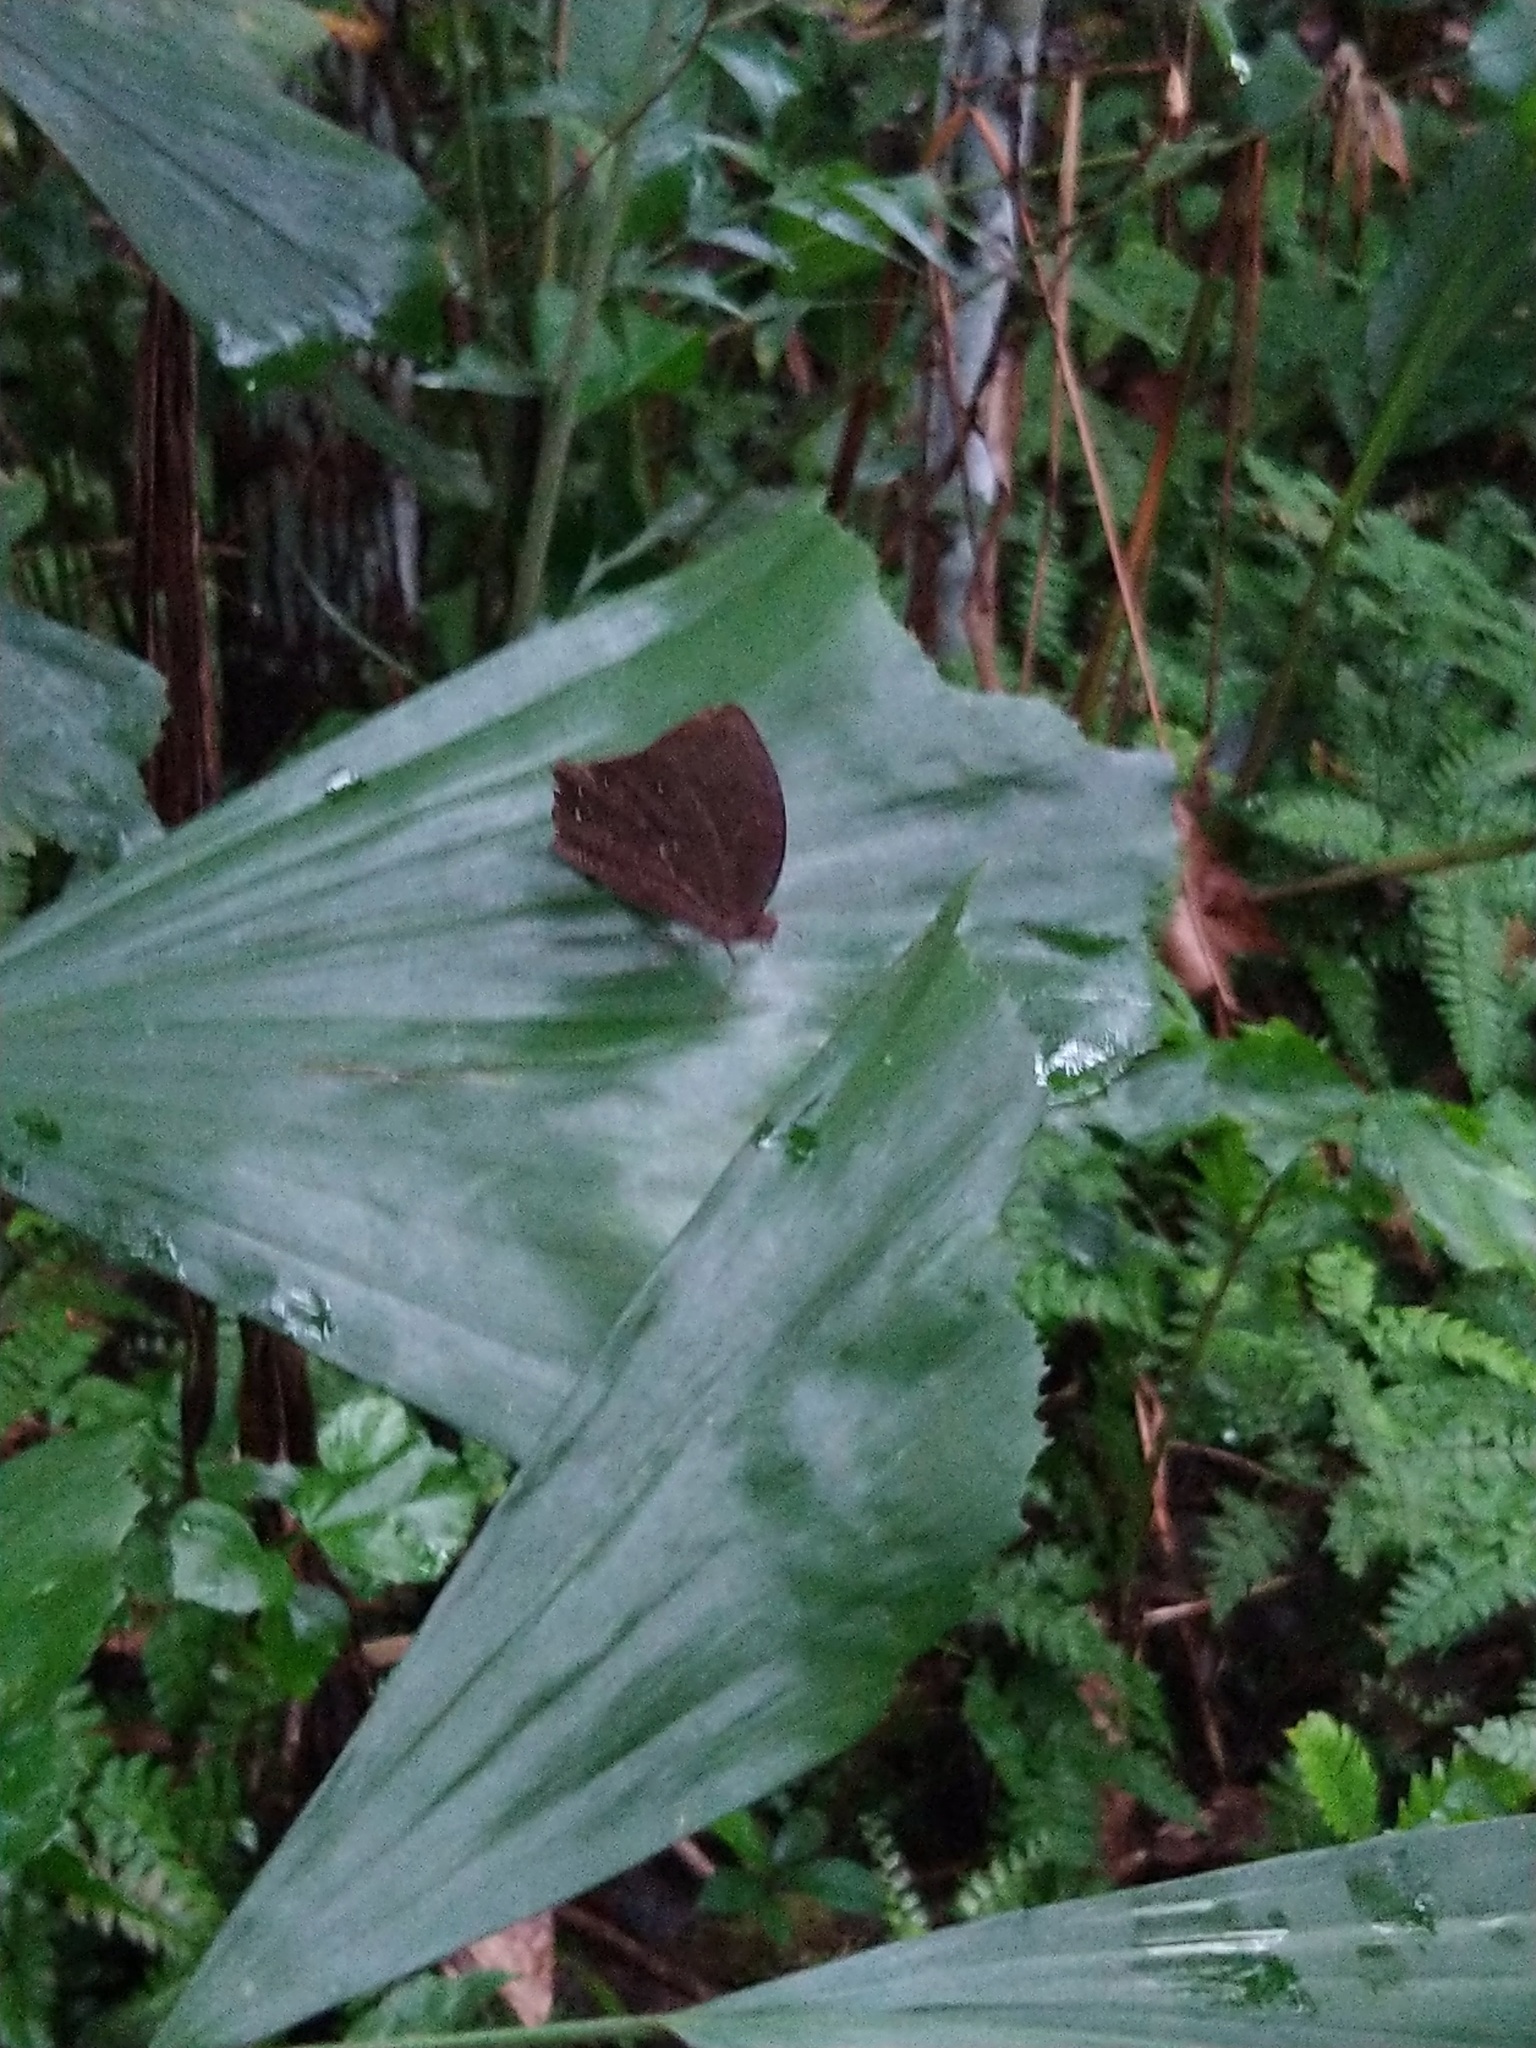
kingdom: Animalia
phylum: Arthropoda
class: Insecta
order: Lepidoptera
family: Nymphalidae
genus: Melanitis
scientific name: Melanitis phedima
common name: Dark evening brown
